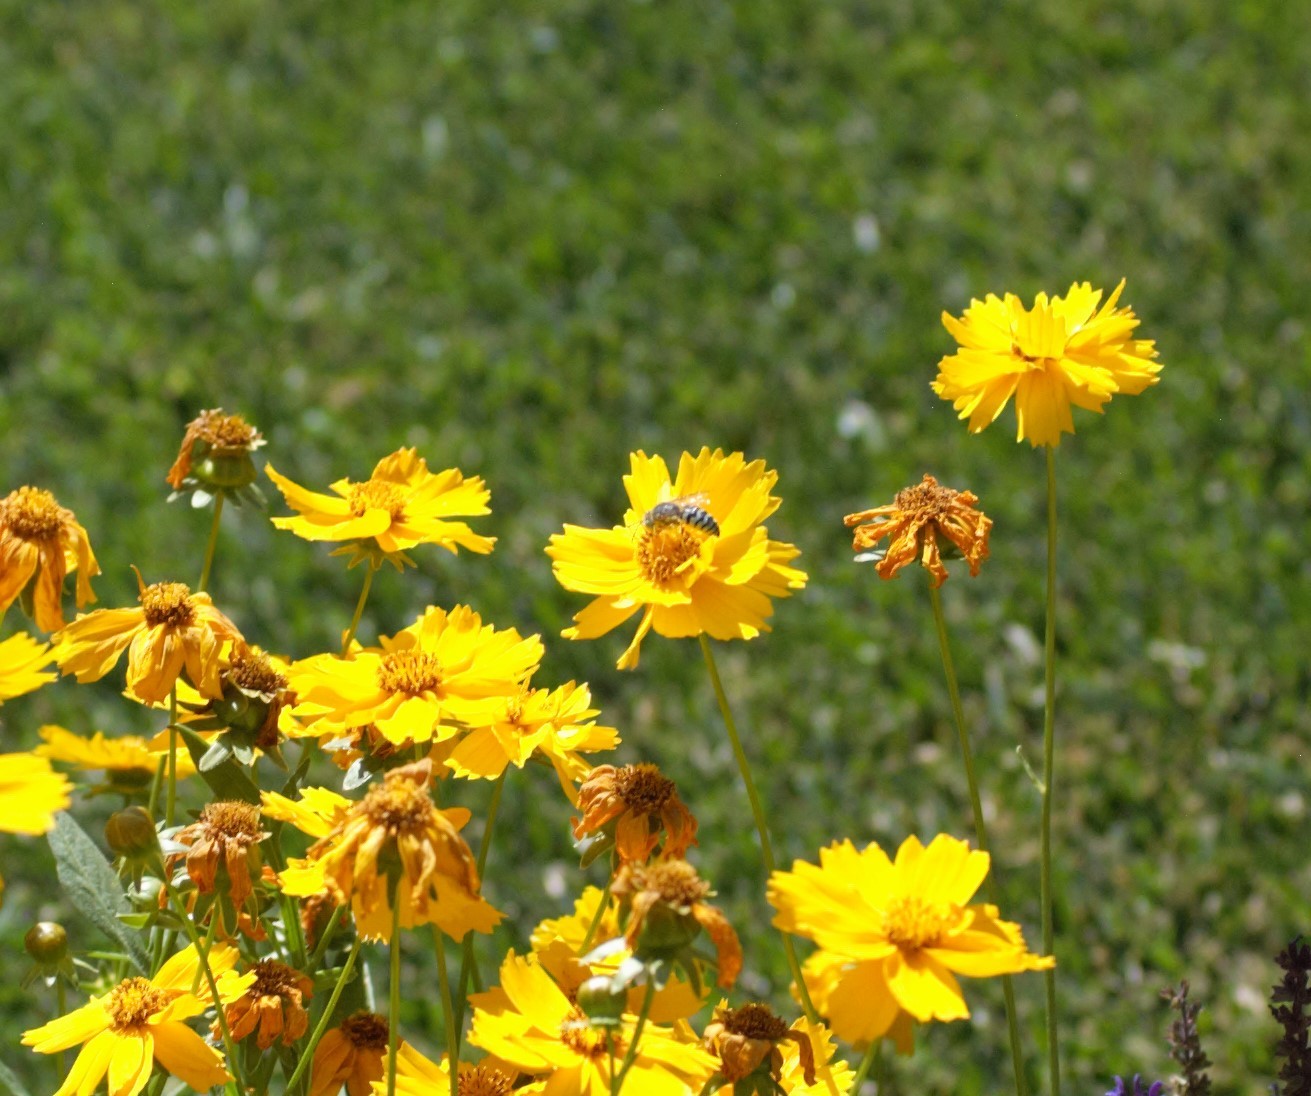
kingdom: Animalia
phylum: Arthropoda
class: Insecta
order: Hymenoptera
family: Crabronidae
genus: Bembix
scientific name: Bembix
